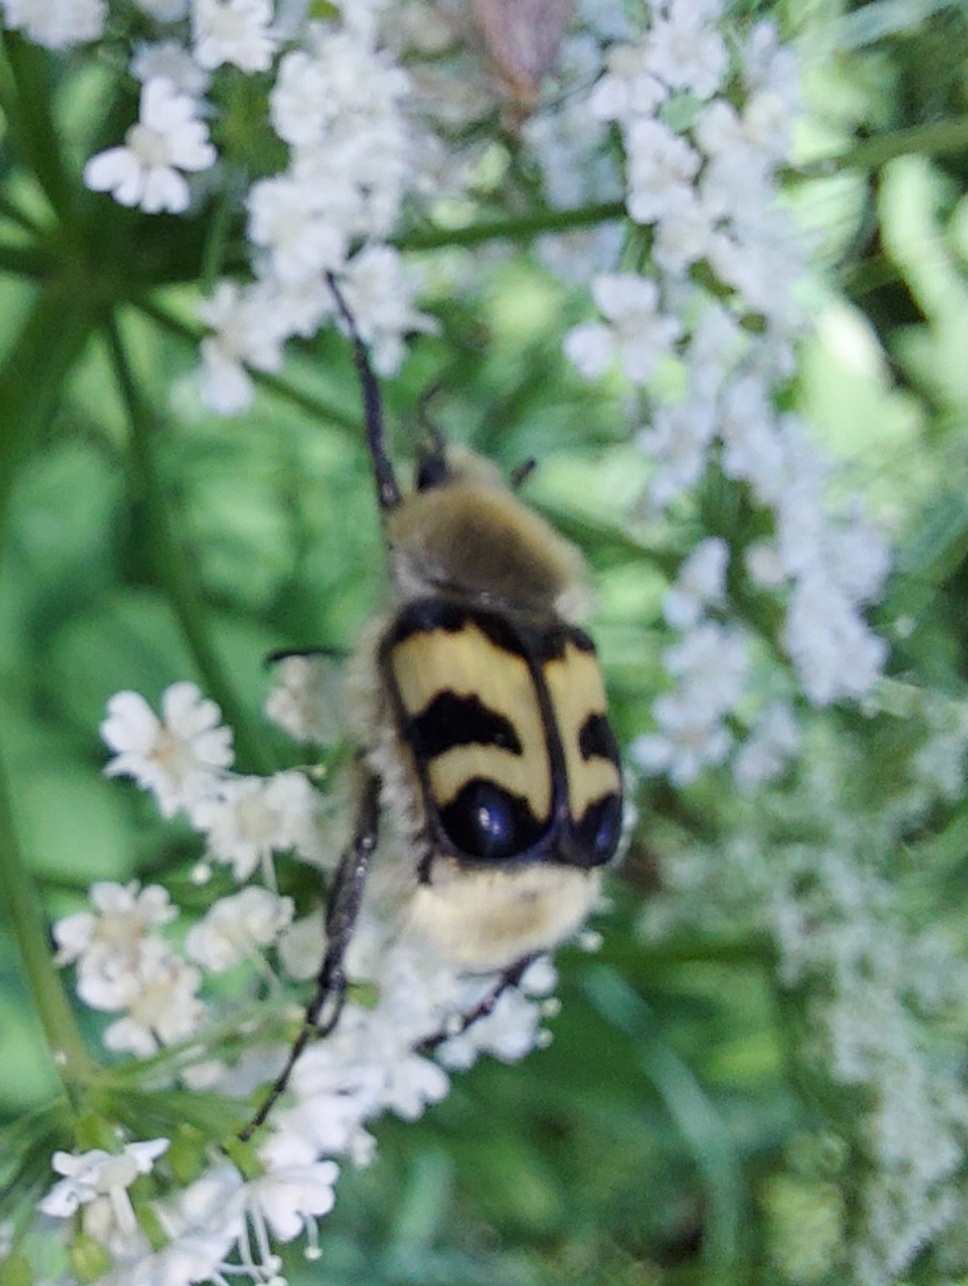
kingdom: Animalia
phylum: Arthropoda
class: Insecta
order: Coleoptera
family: Scarabaeidae
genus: Trichius
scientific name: Trichius fasciatus
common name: Bee beetle
